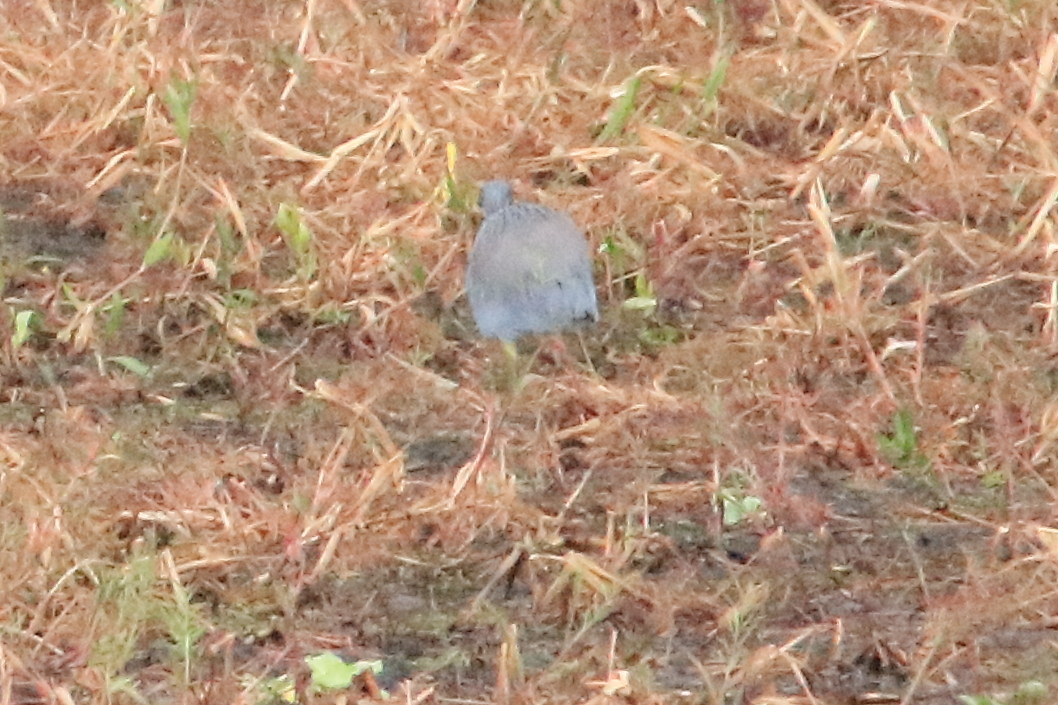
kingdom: Animalia
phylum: Chordata
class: Aves
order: Pelecaniformes
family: Ardeidae
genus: Egretta
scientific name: Egretta caerulea
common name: Little blue heron
